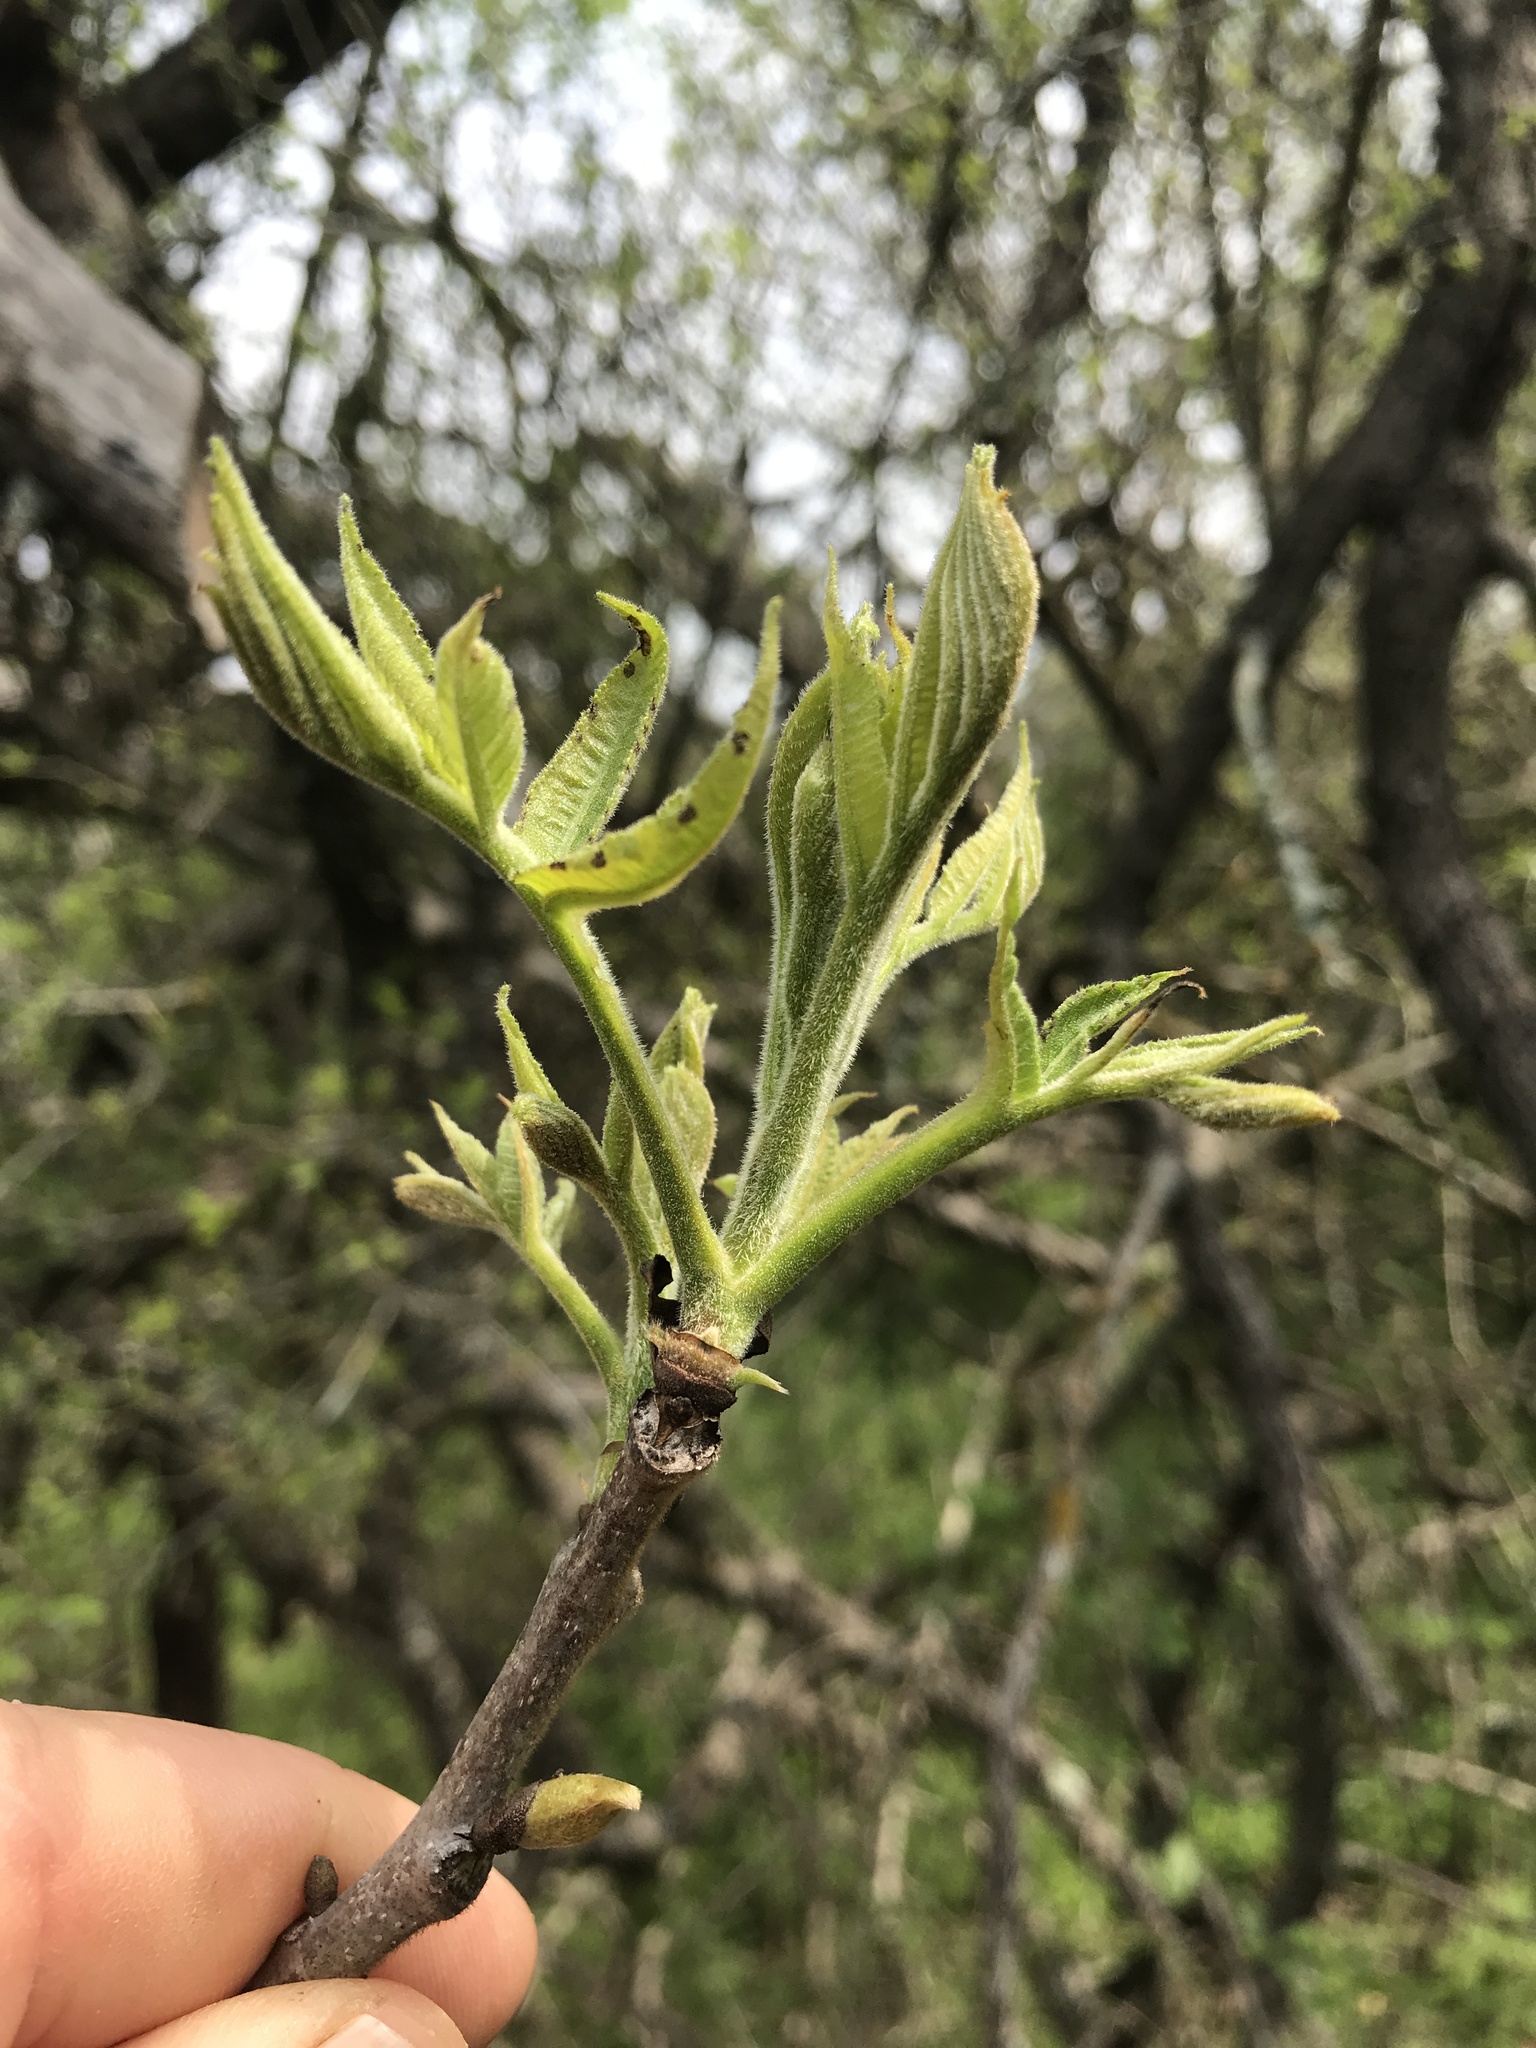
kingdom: Plantae
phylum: Tracheophyta
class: Magnoliopsida
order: Fagales
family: Juglandaceae
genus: Carya
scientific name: Carya illinoinensis
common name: Pecan
